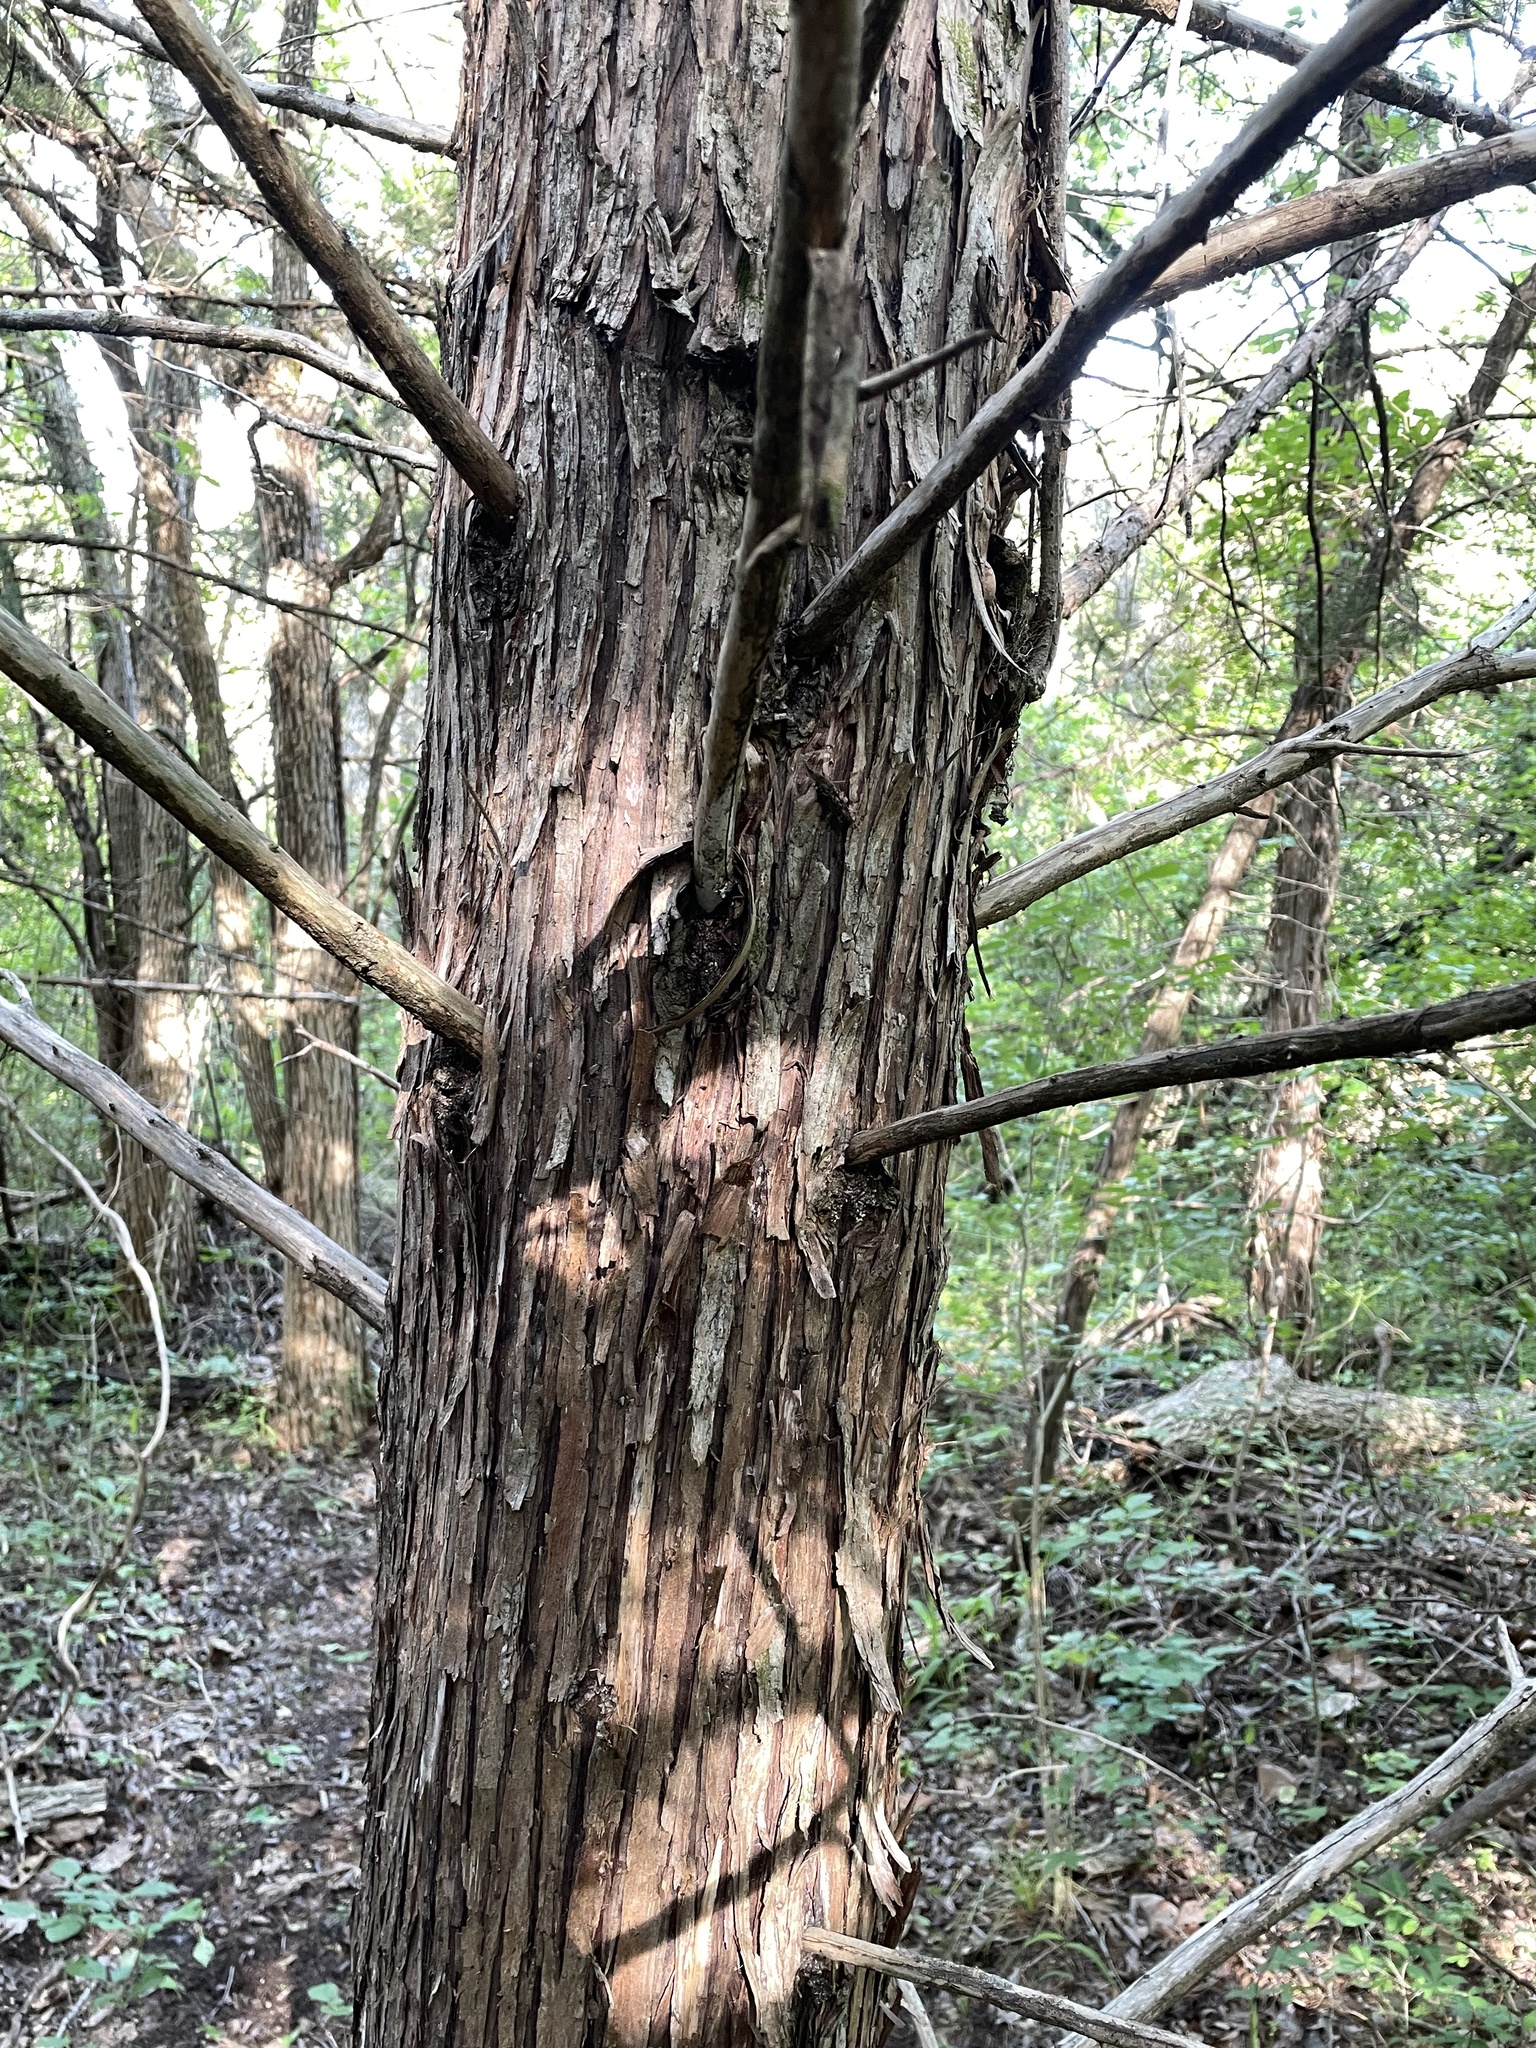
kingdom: Plantae
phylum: Tracheophyta
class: Pinopsida
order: Pinales
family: Cupressaceae
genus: Juniperus
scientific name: Juniperus virginiana
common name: Red juniper
